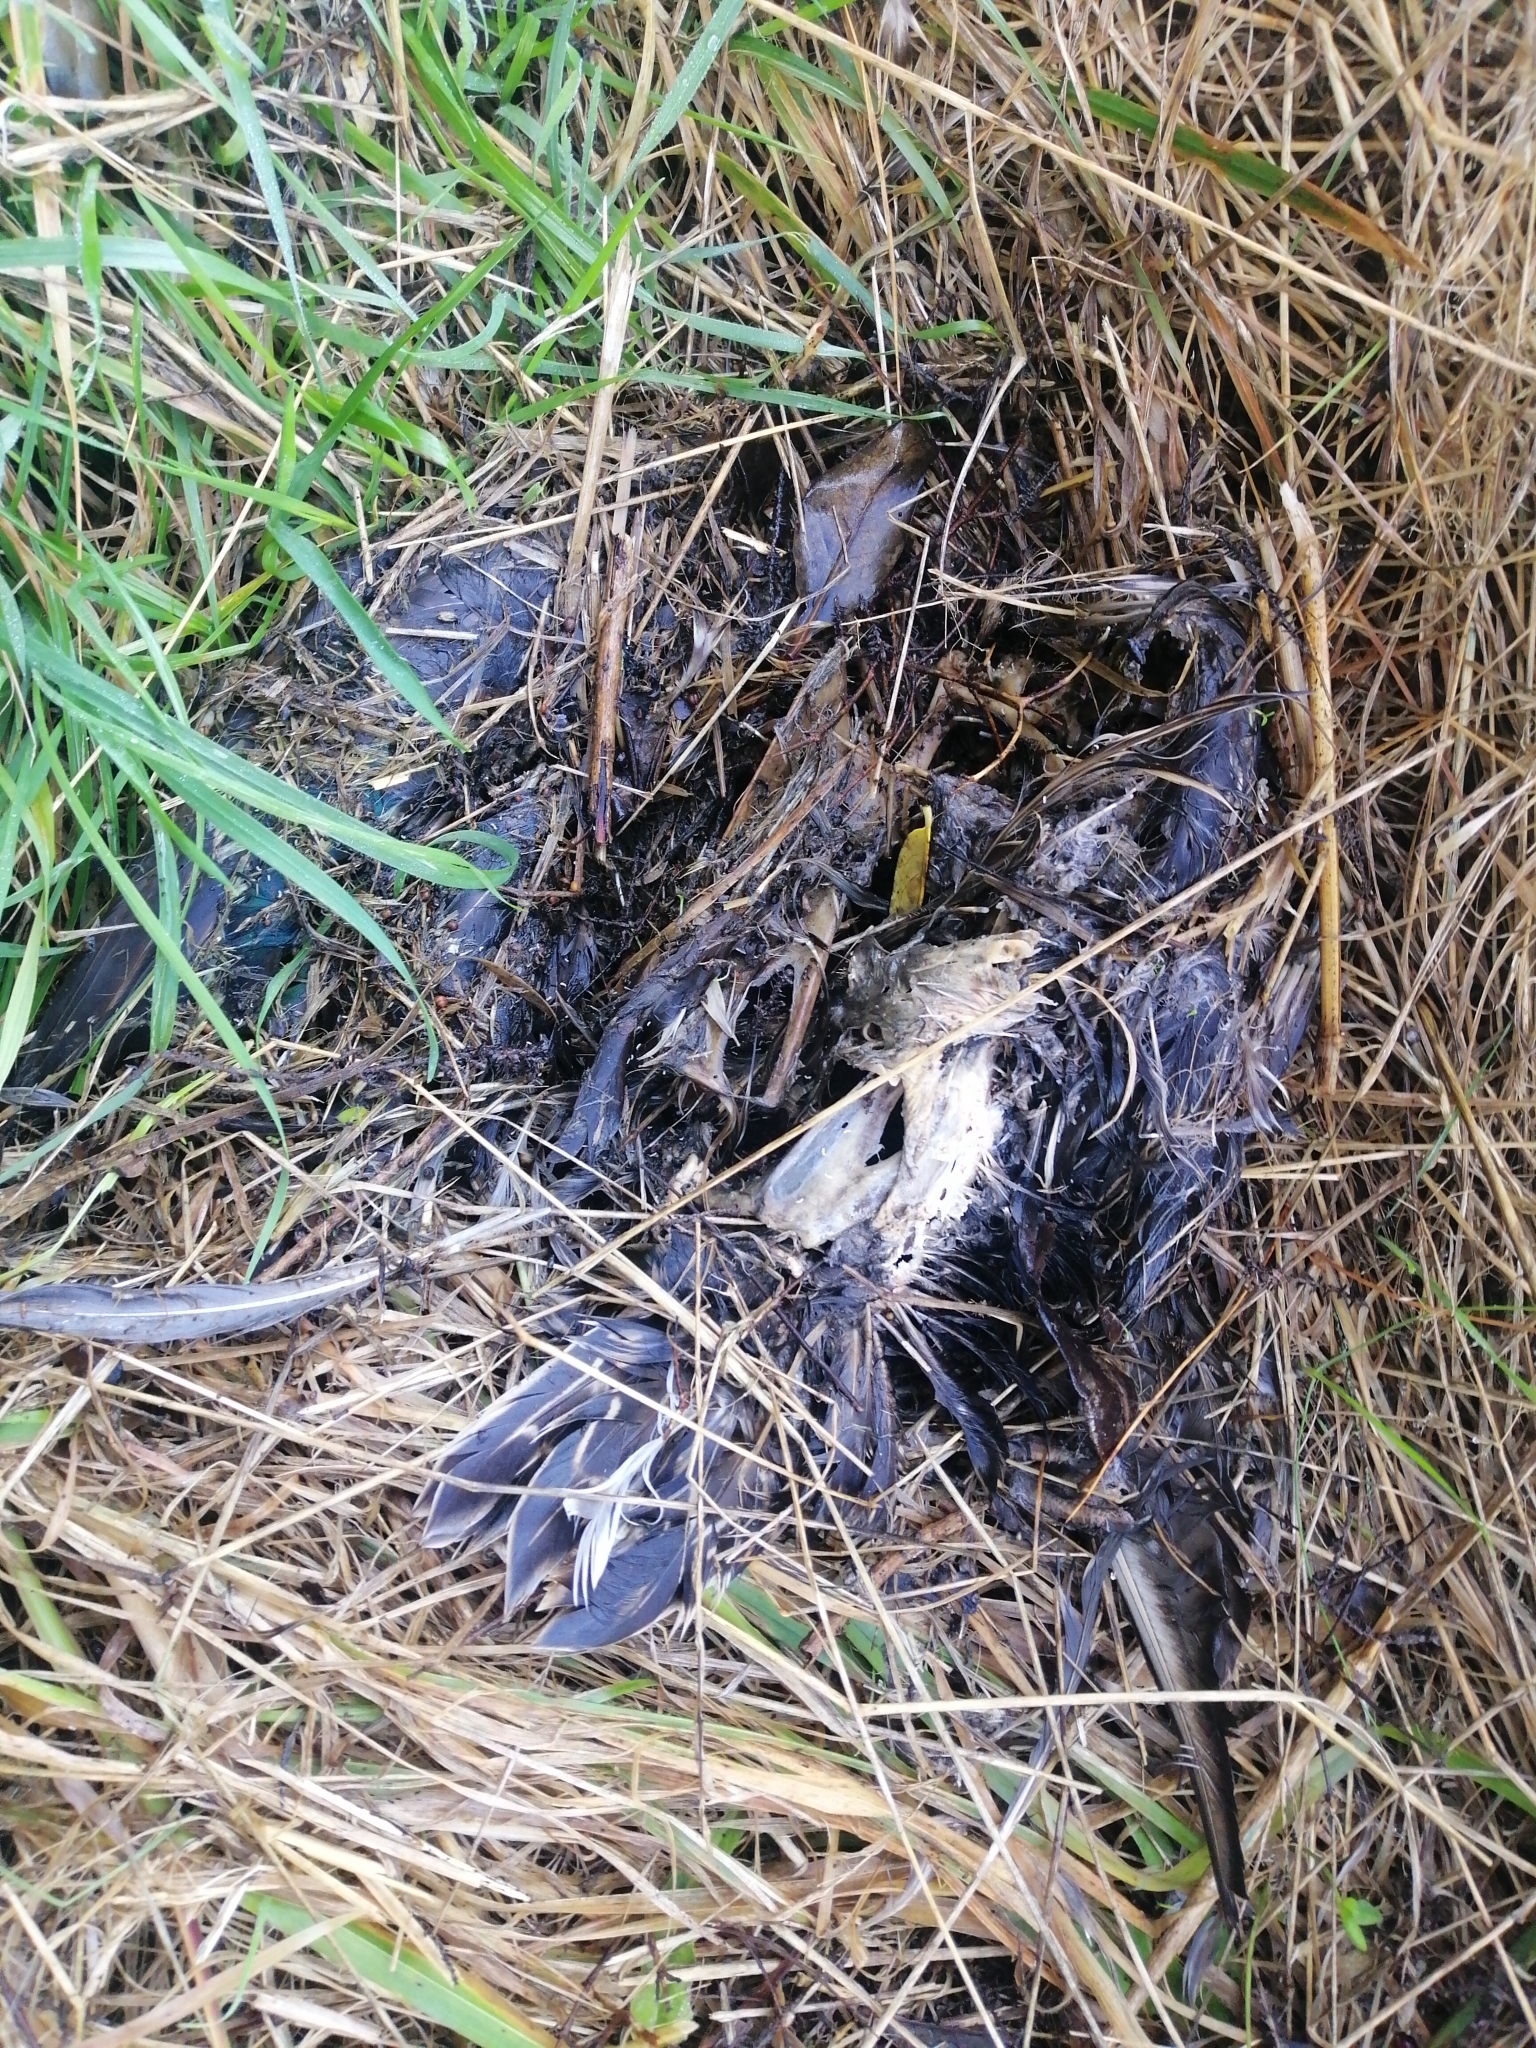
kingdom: Animalia
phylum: Chordata
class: Aves
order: Anseriformes
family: Anatidae
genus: Anas
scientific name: Anas platyrhynchos
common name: Mallard
